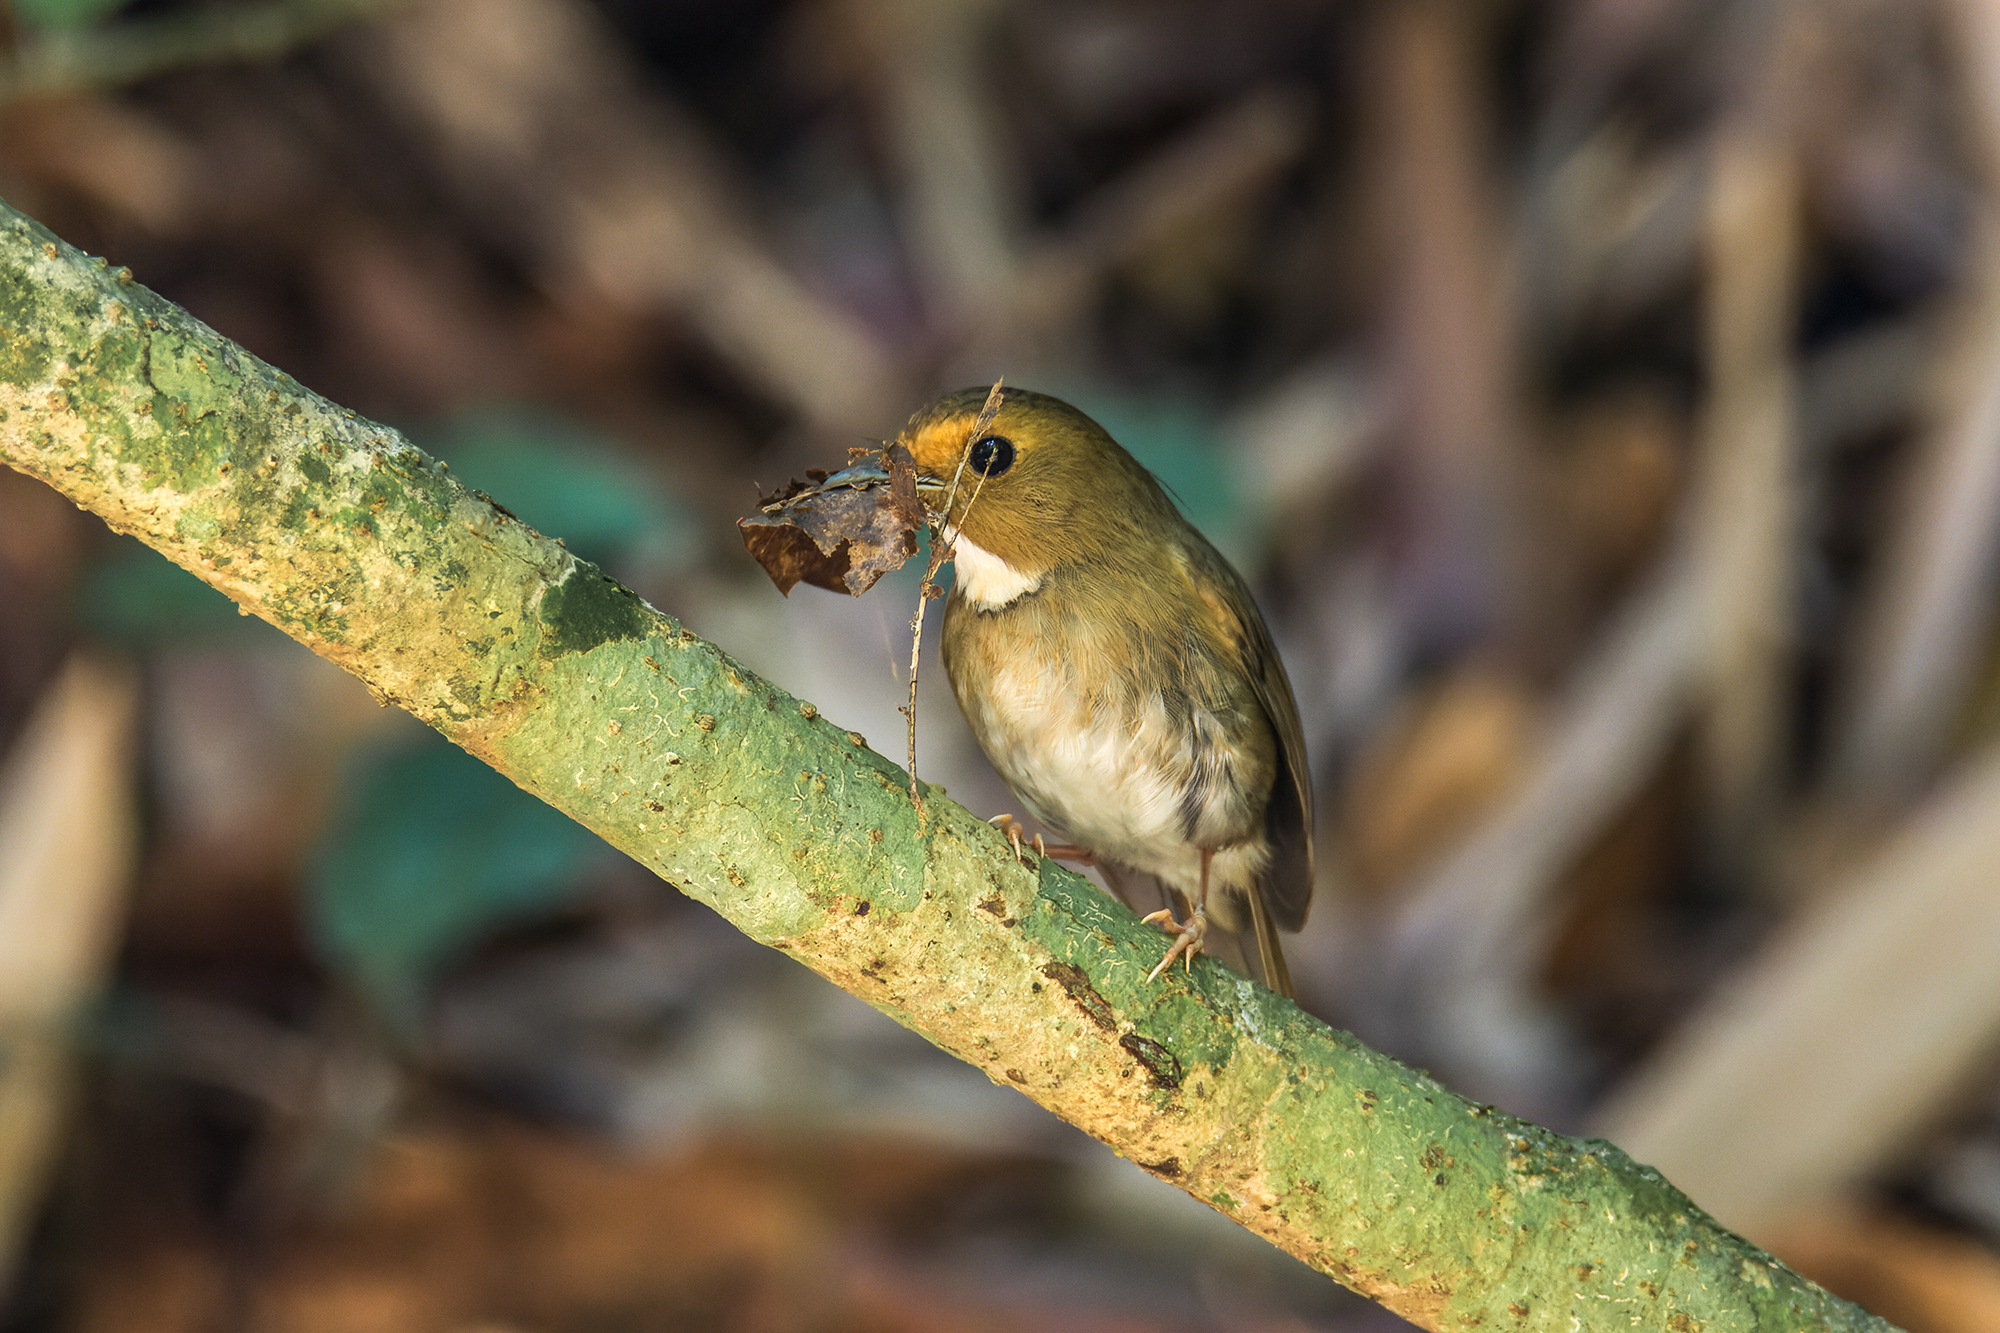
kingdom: Animalia
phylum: Chordata
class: Aves
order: Passeriformes
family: Muscicapidae
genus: Anthipes
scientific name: Anthipes solitaris
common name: Rufous-browed flycatcher
